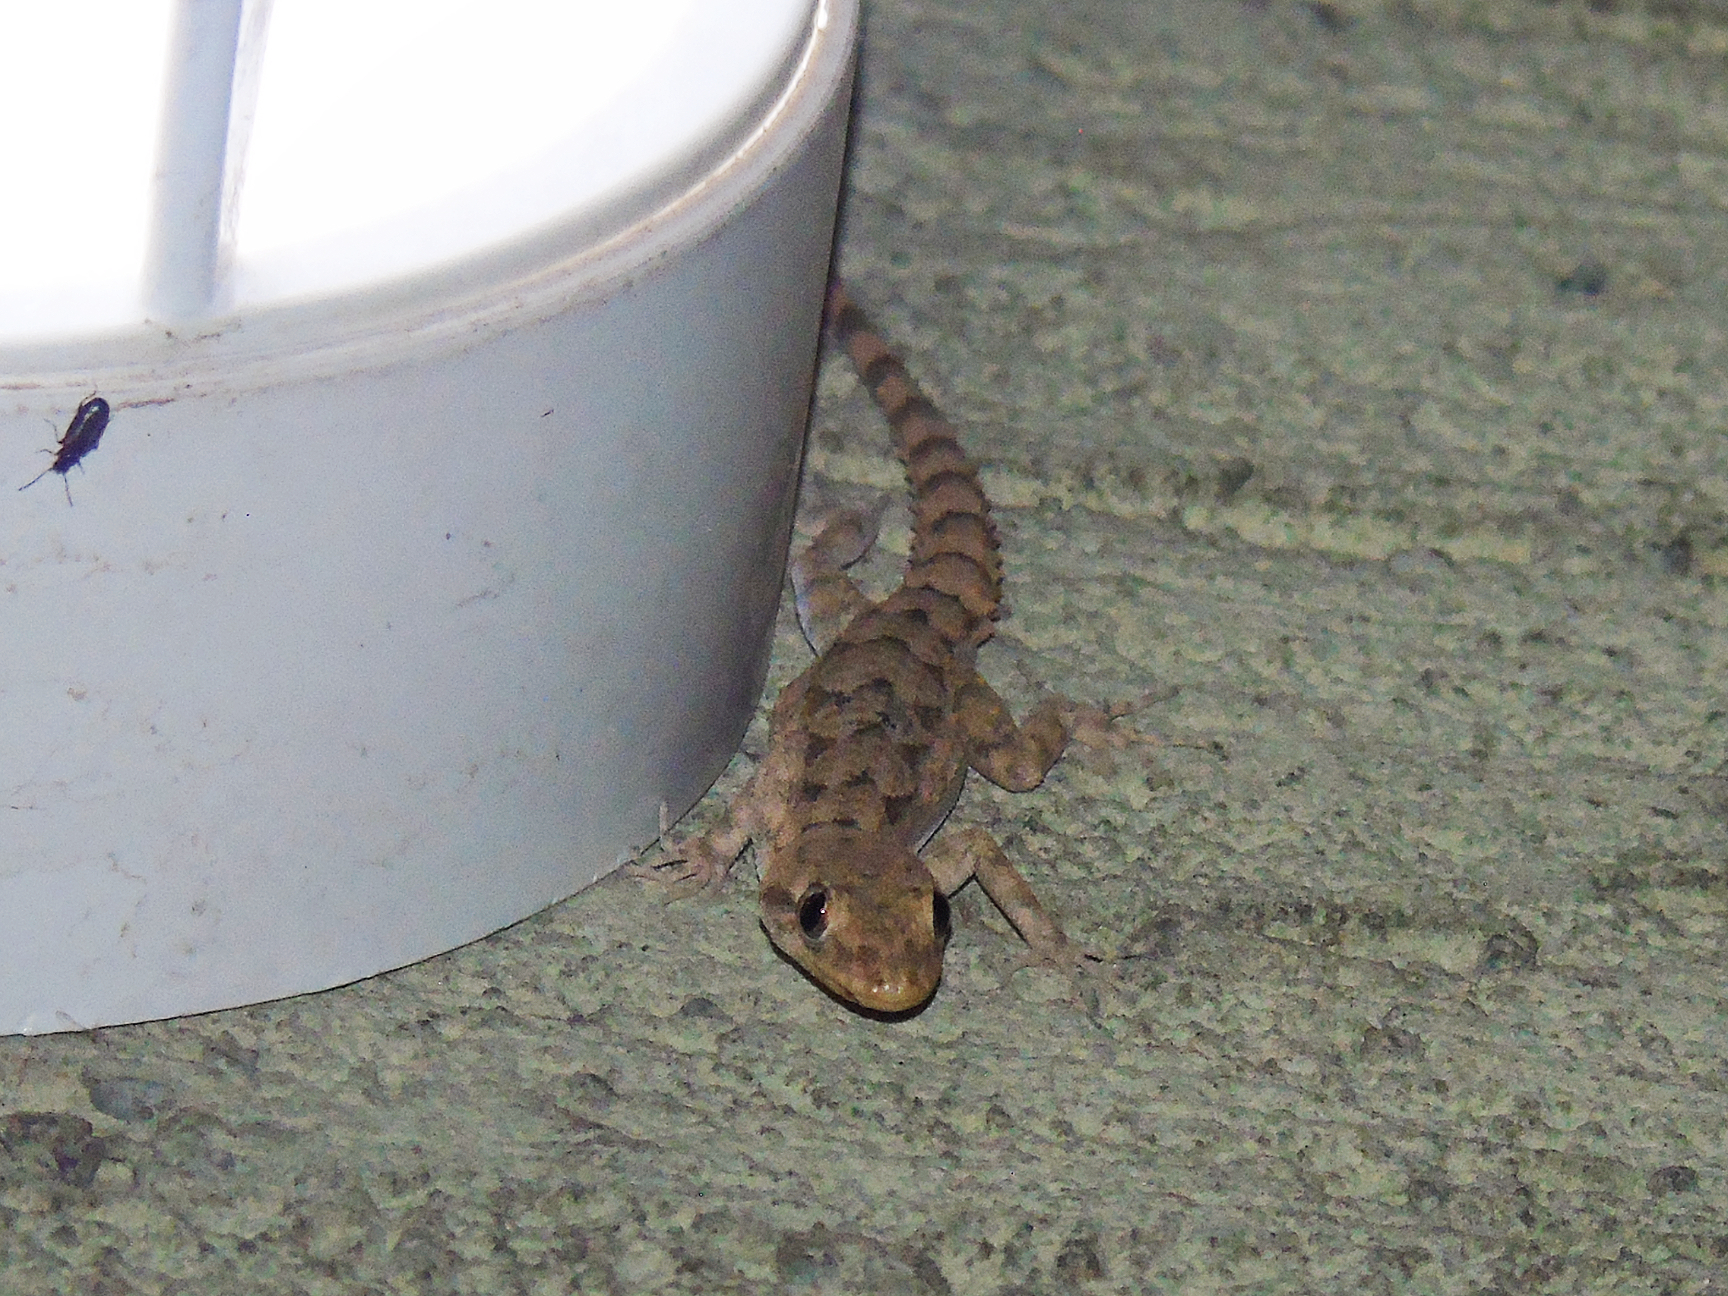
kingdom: Animalia
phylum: Chordata
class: Squamata
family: Gekkonidae
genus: Mediodactylus
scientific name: Mediodactylus heterocercus
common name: Asia minor thin-toed gecko
